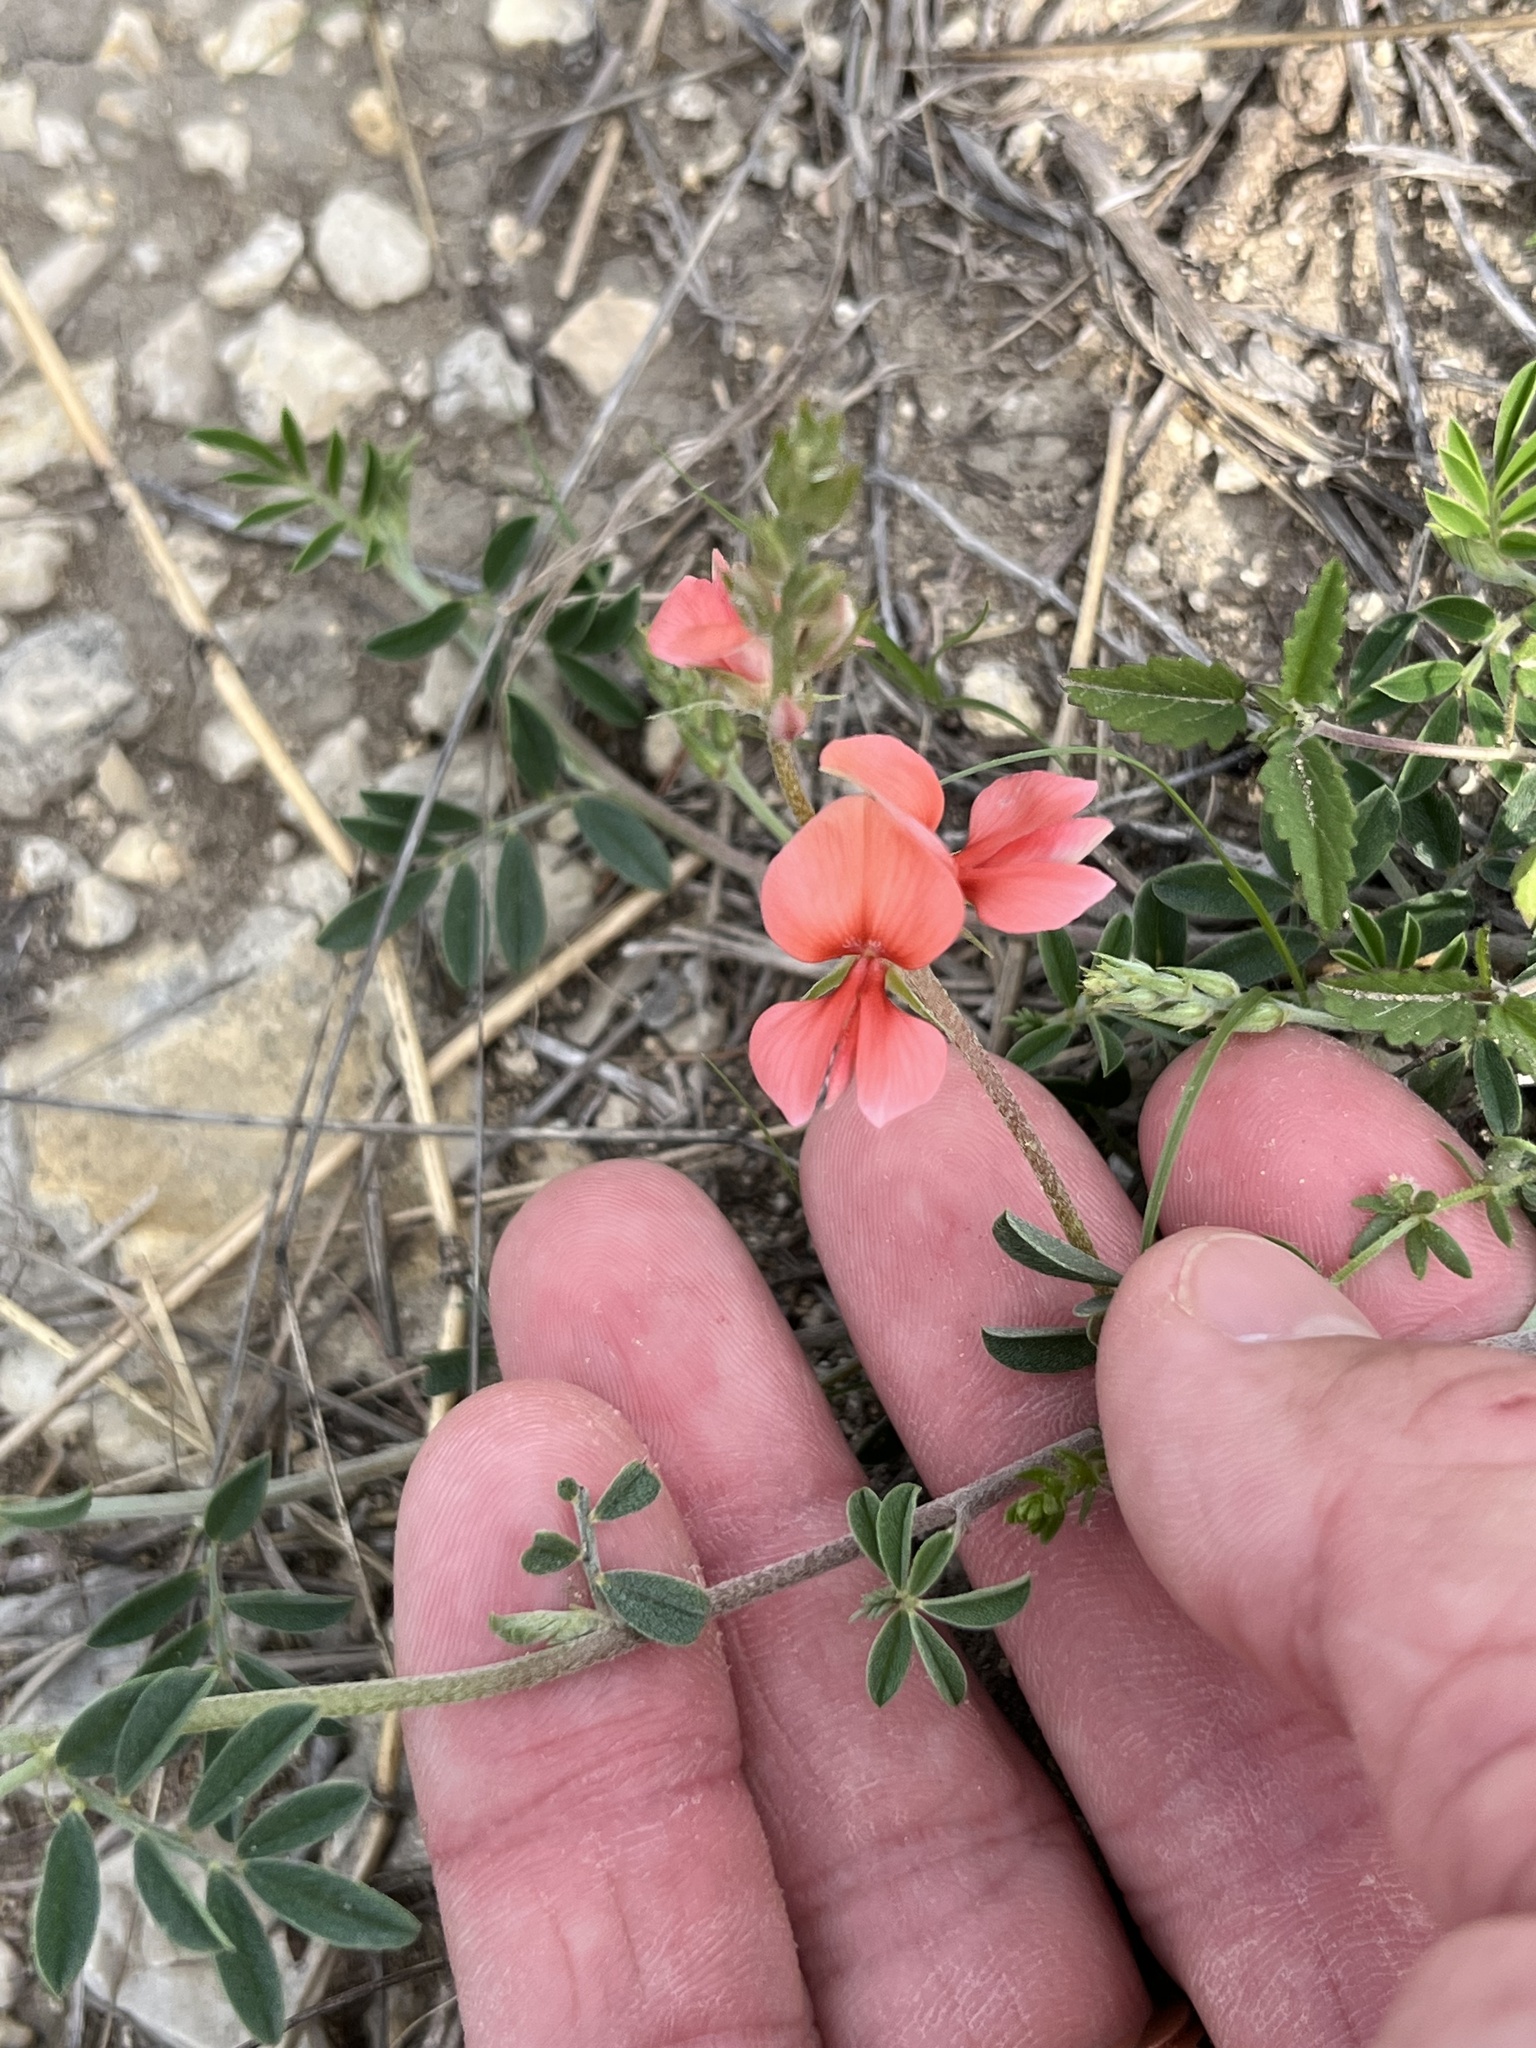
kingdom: Plantae
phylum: Tracheophyta
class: Magnoliopsida
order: Fabales
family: Fabaceae
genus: Indigofera
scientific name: Indigofera miniata
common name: Coast indigo
